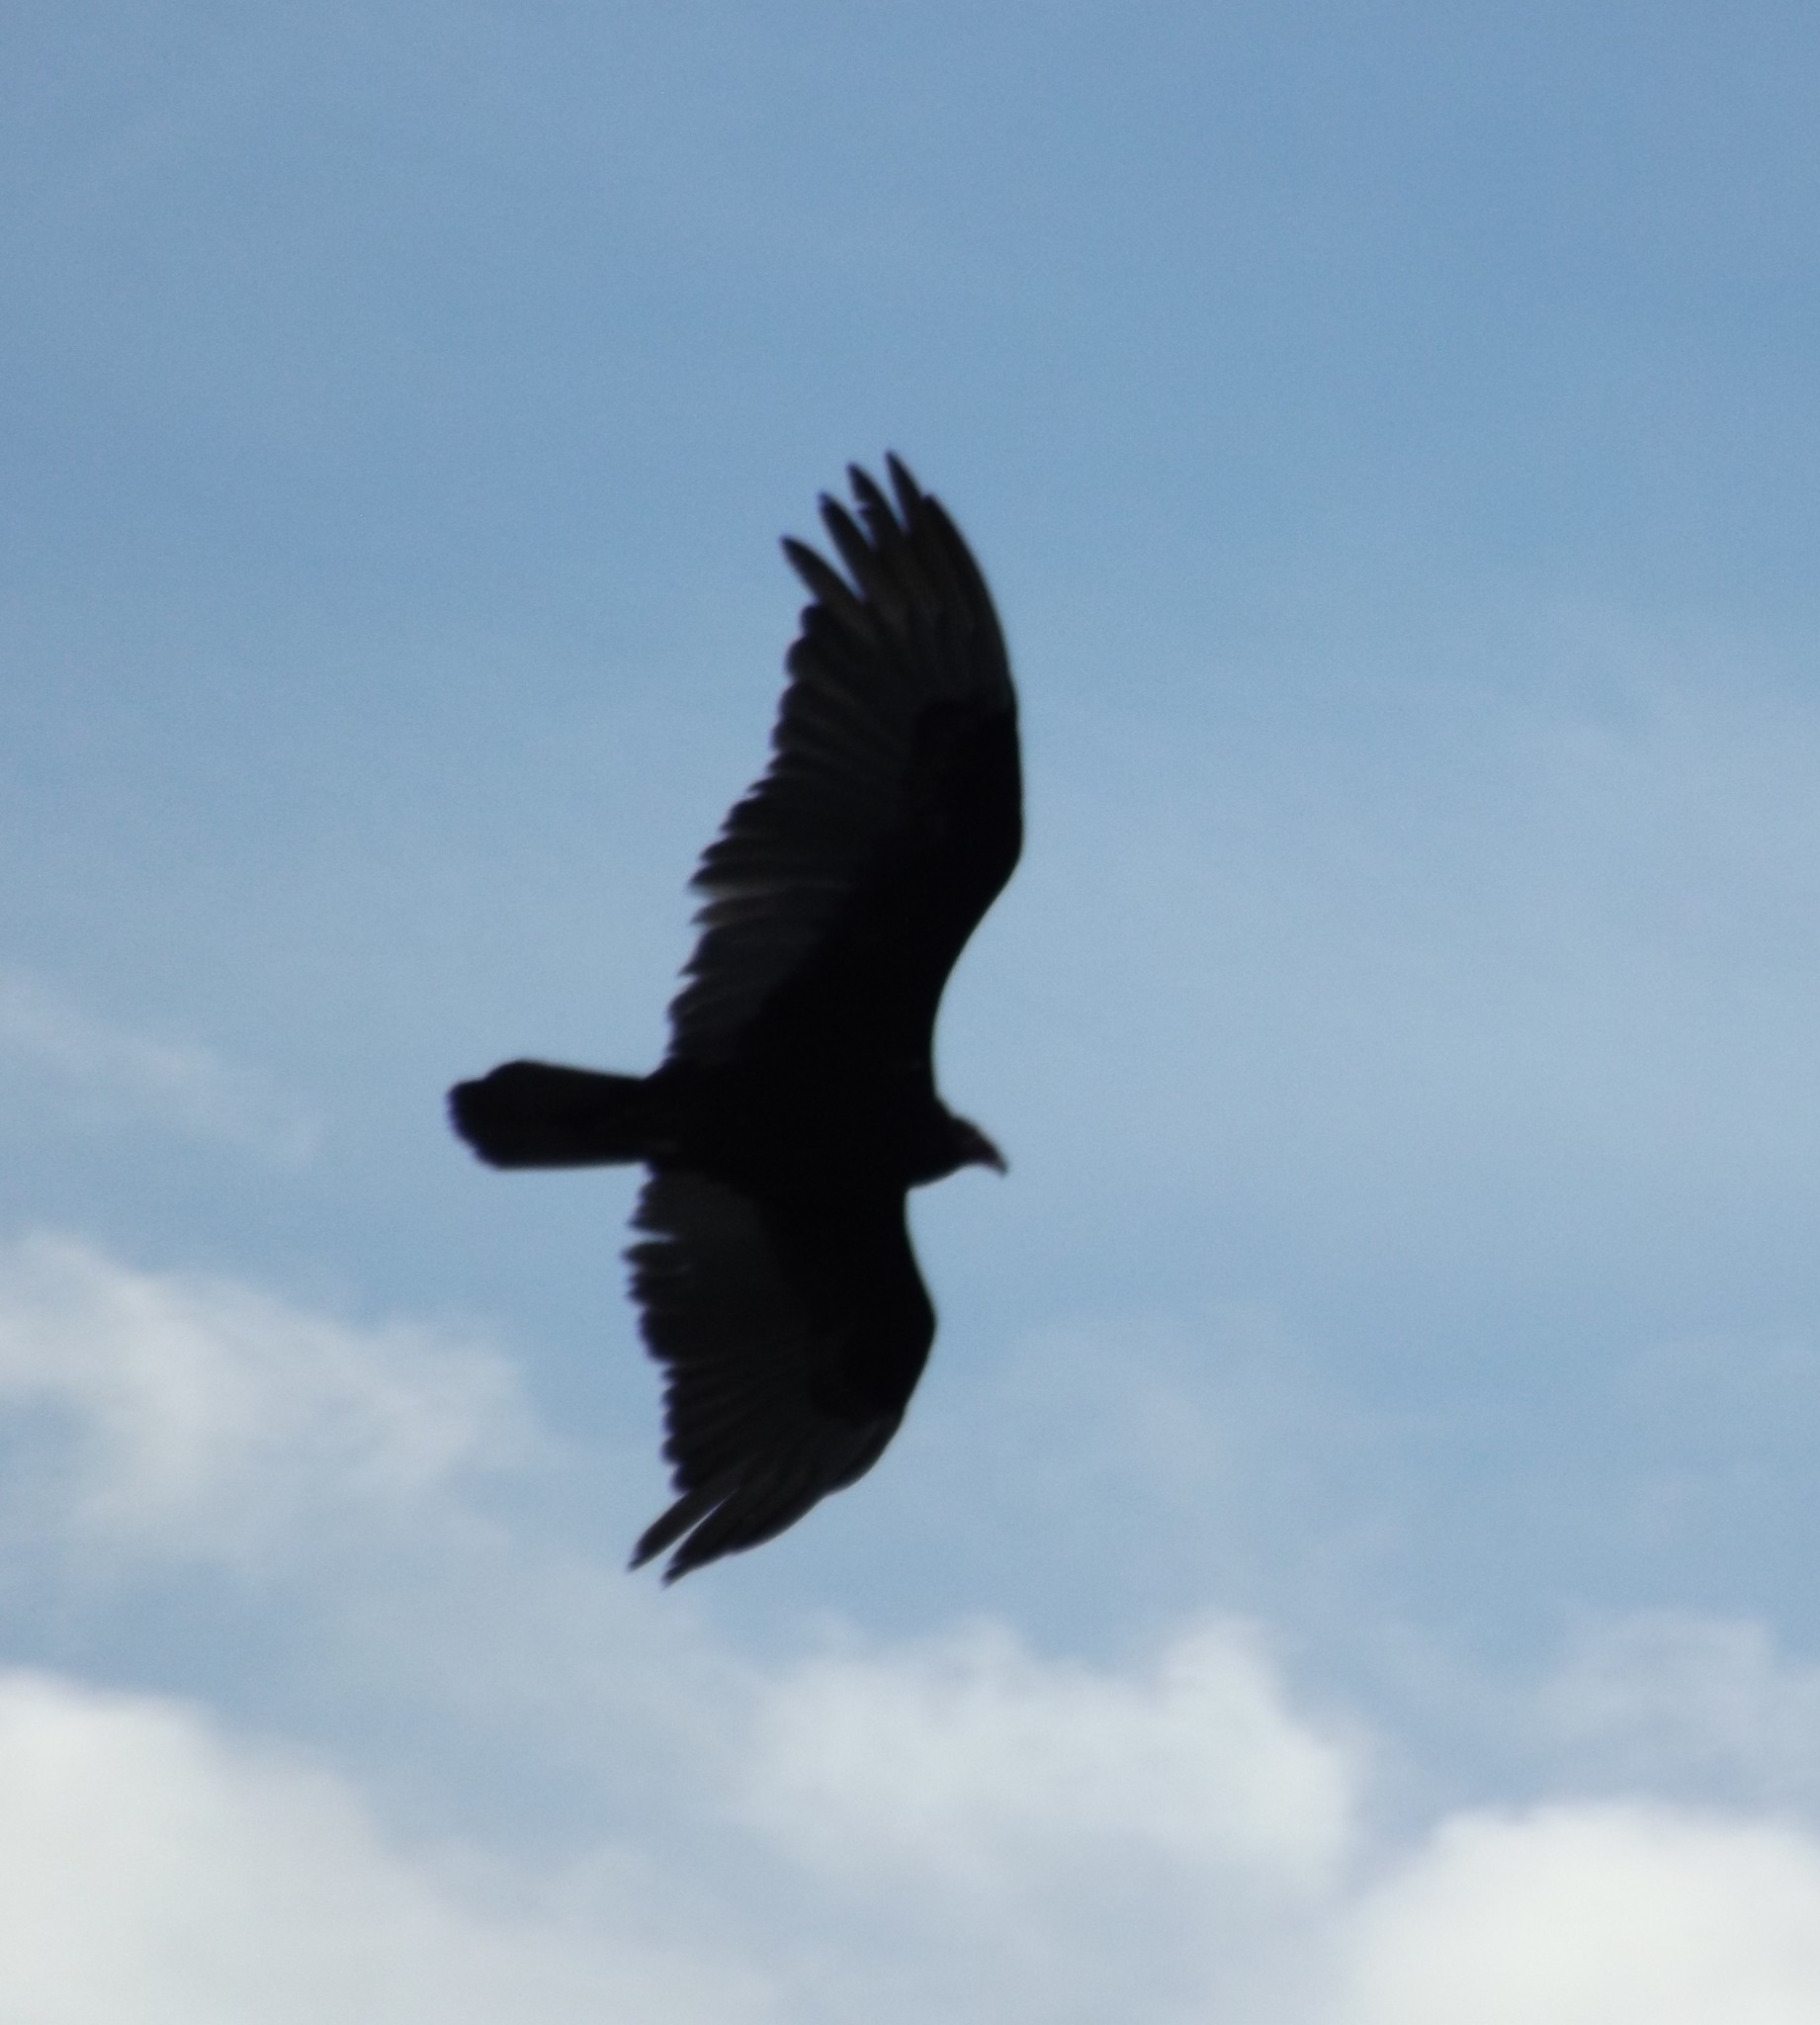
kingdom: Animalia
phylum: Chordata
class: Aves
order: Accipitriformes
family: Cathartidae
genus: Cathartes
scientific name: Cathartes aura
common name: Turkey vulture
